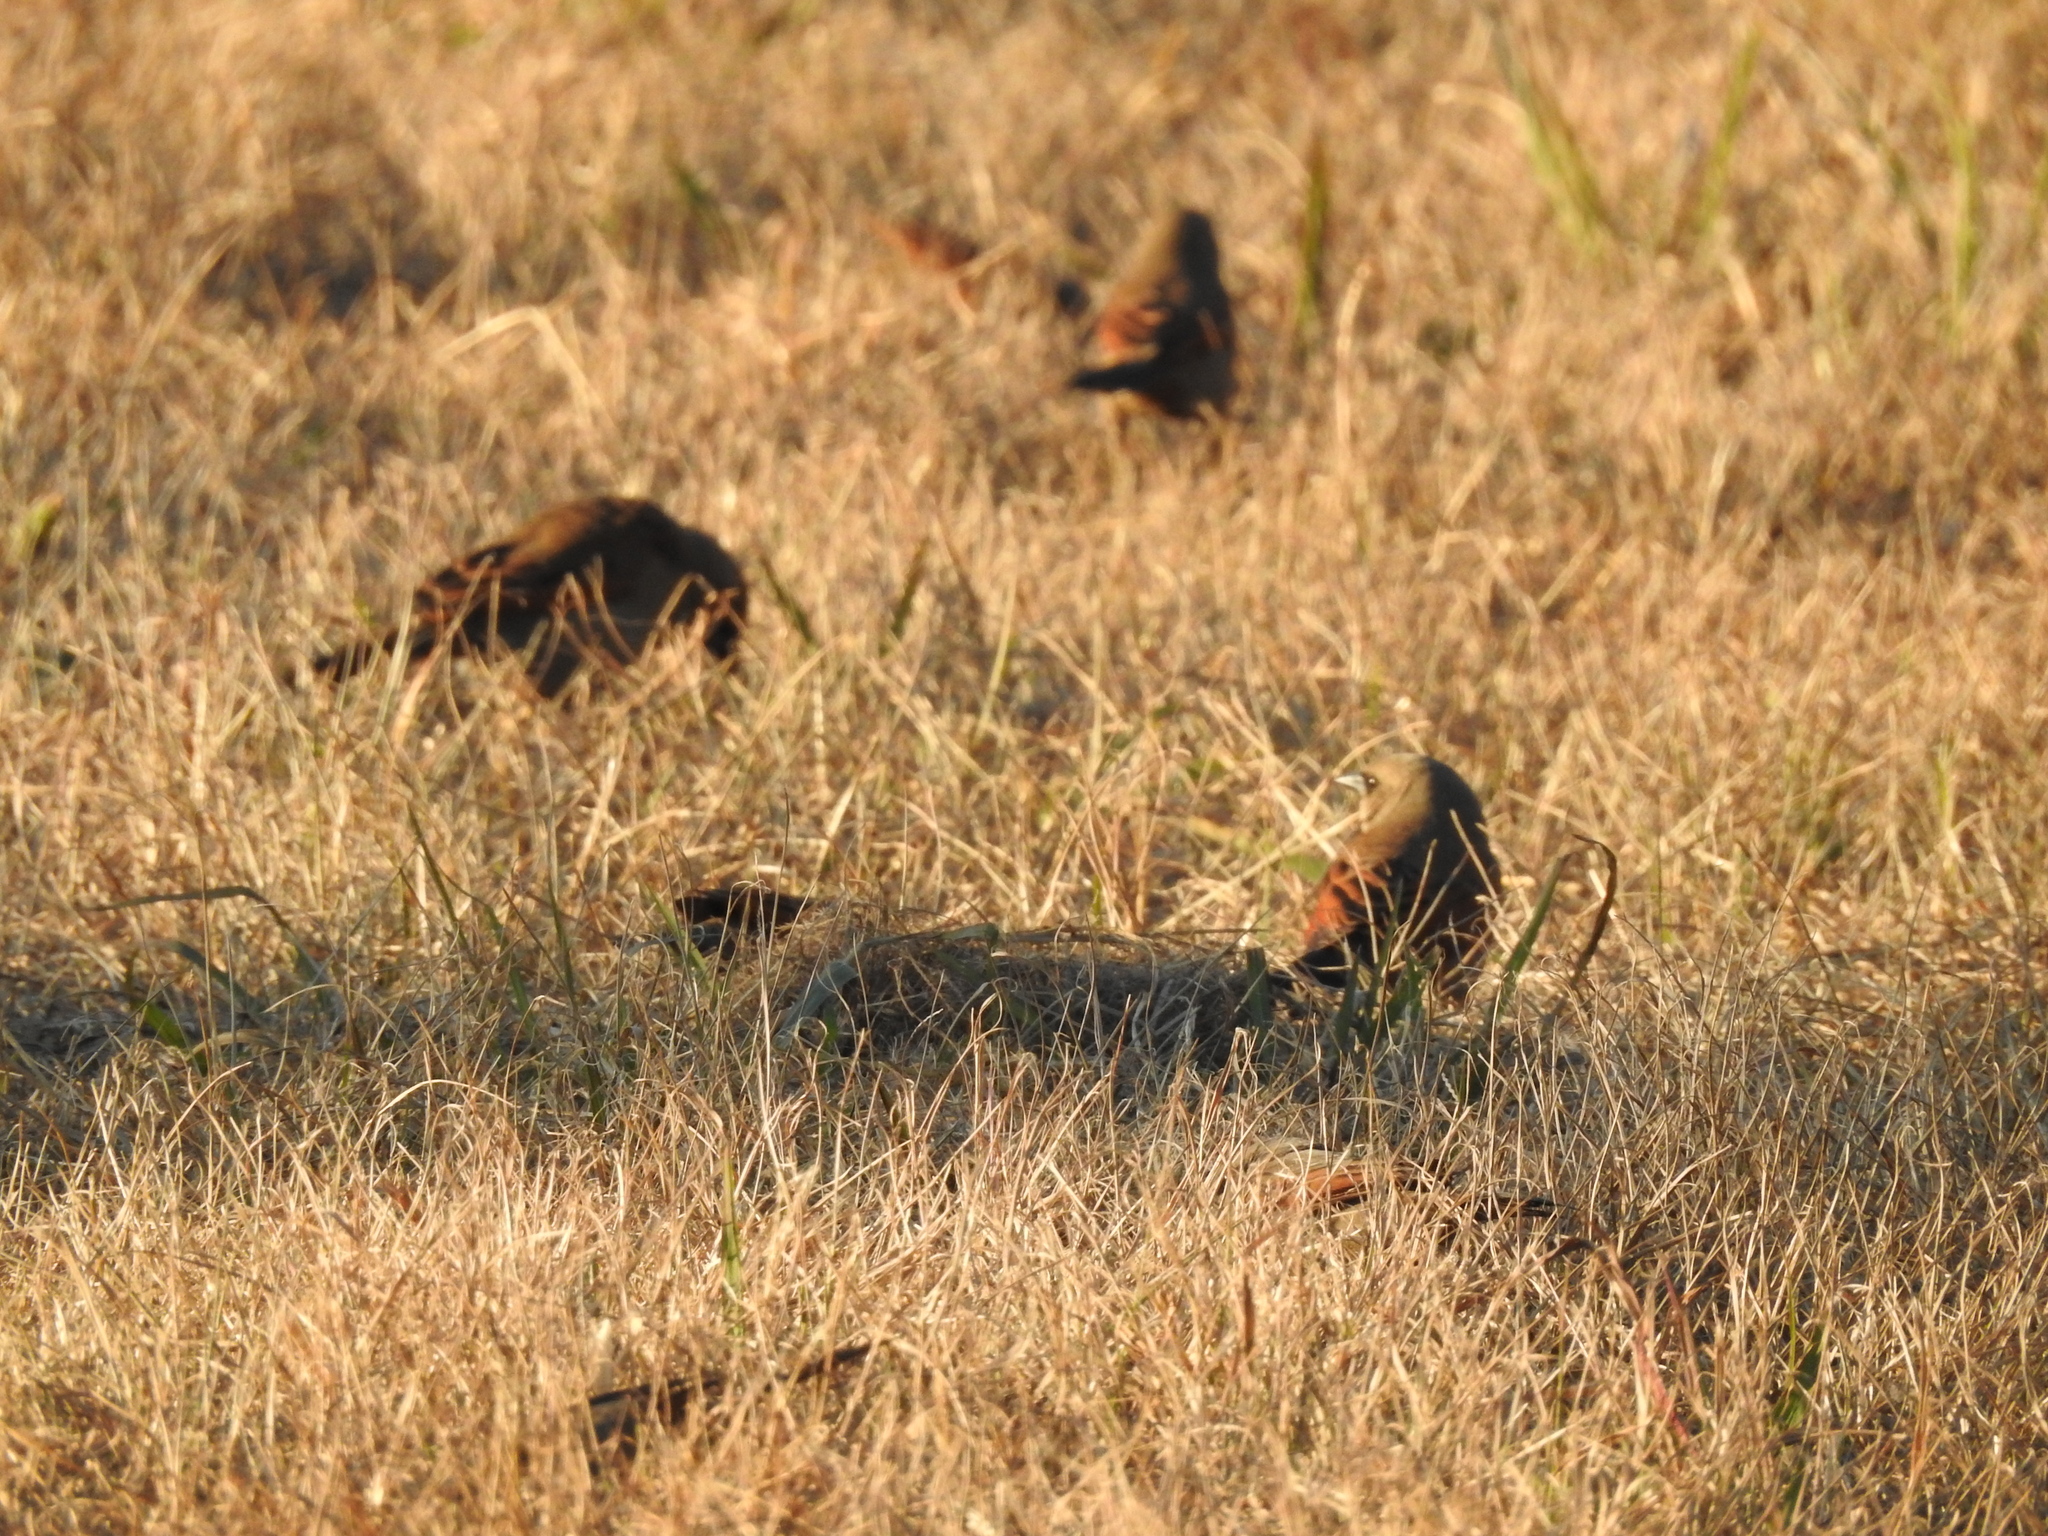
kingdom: Animalia
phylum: Chordata
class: Aves
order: Passeriformes
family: Icteridae
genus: Agelaioides
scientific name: Agelaioides badius
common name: Baywing
